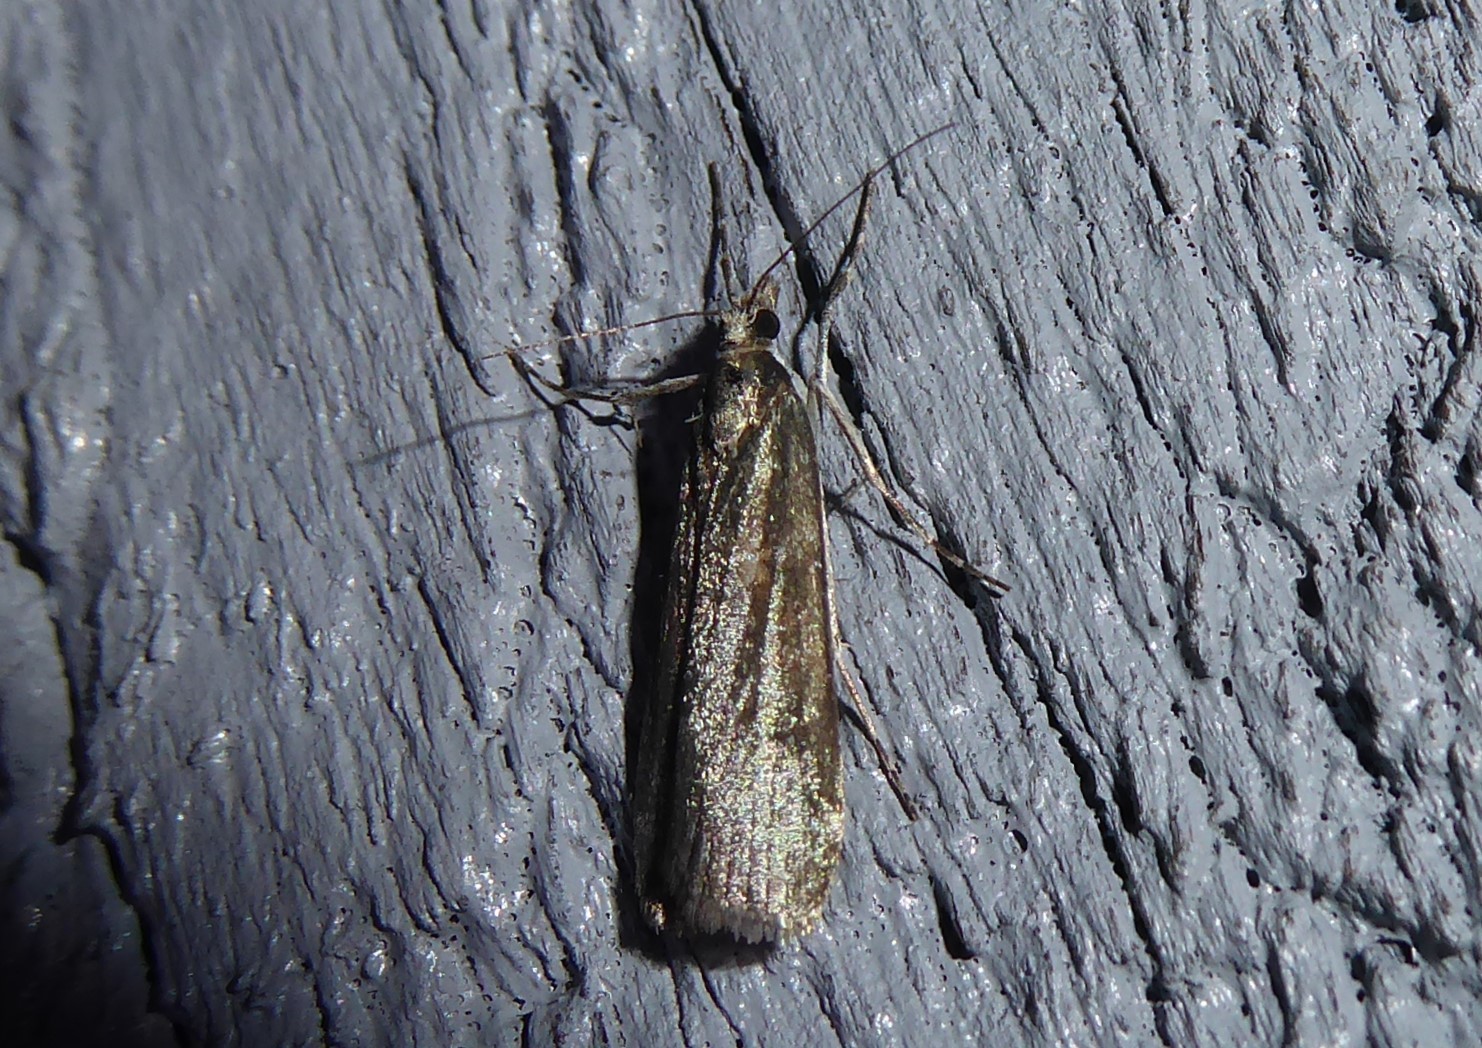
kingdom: Animalia
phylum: Arthropoda
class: Insecta
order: Lepidoptera
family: Crambidae
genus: Eudonia
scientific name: Eudonia cataxesta
